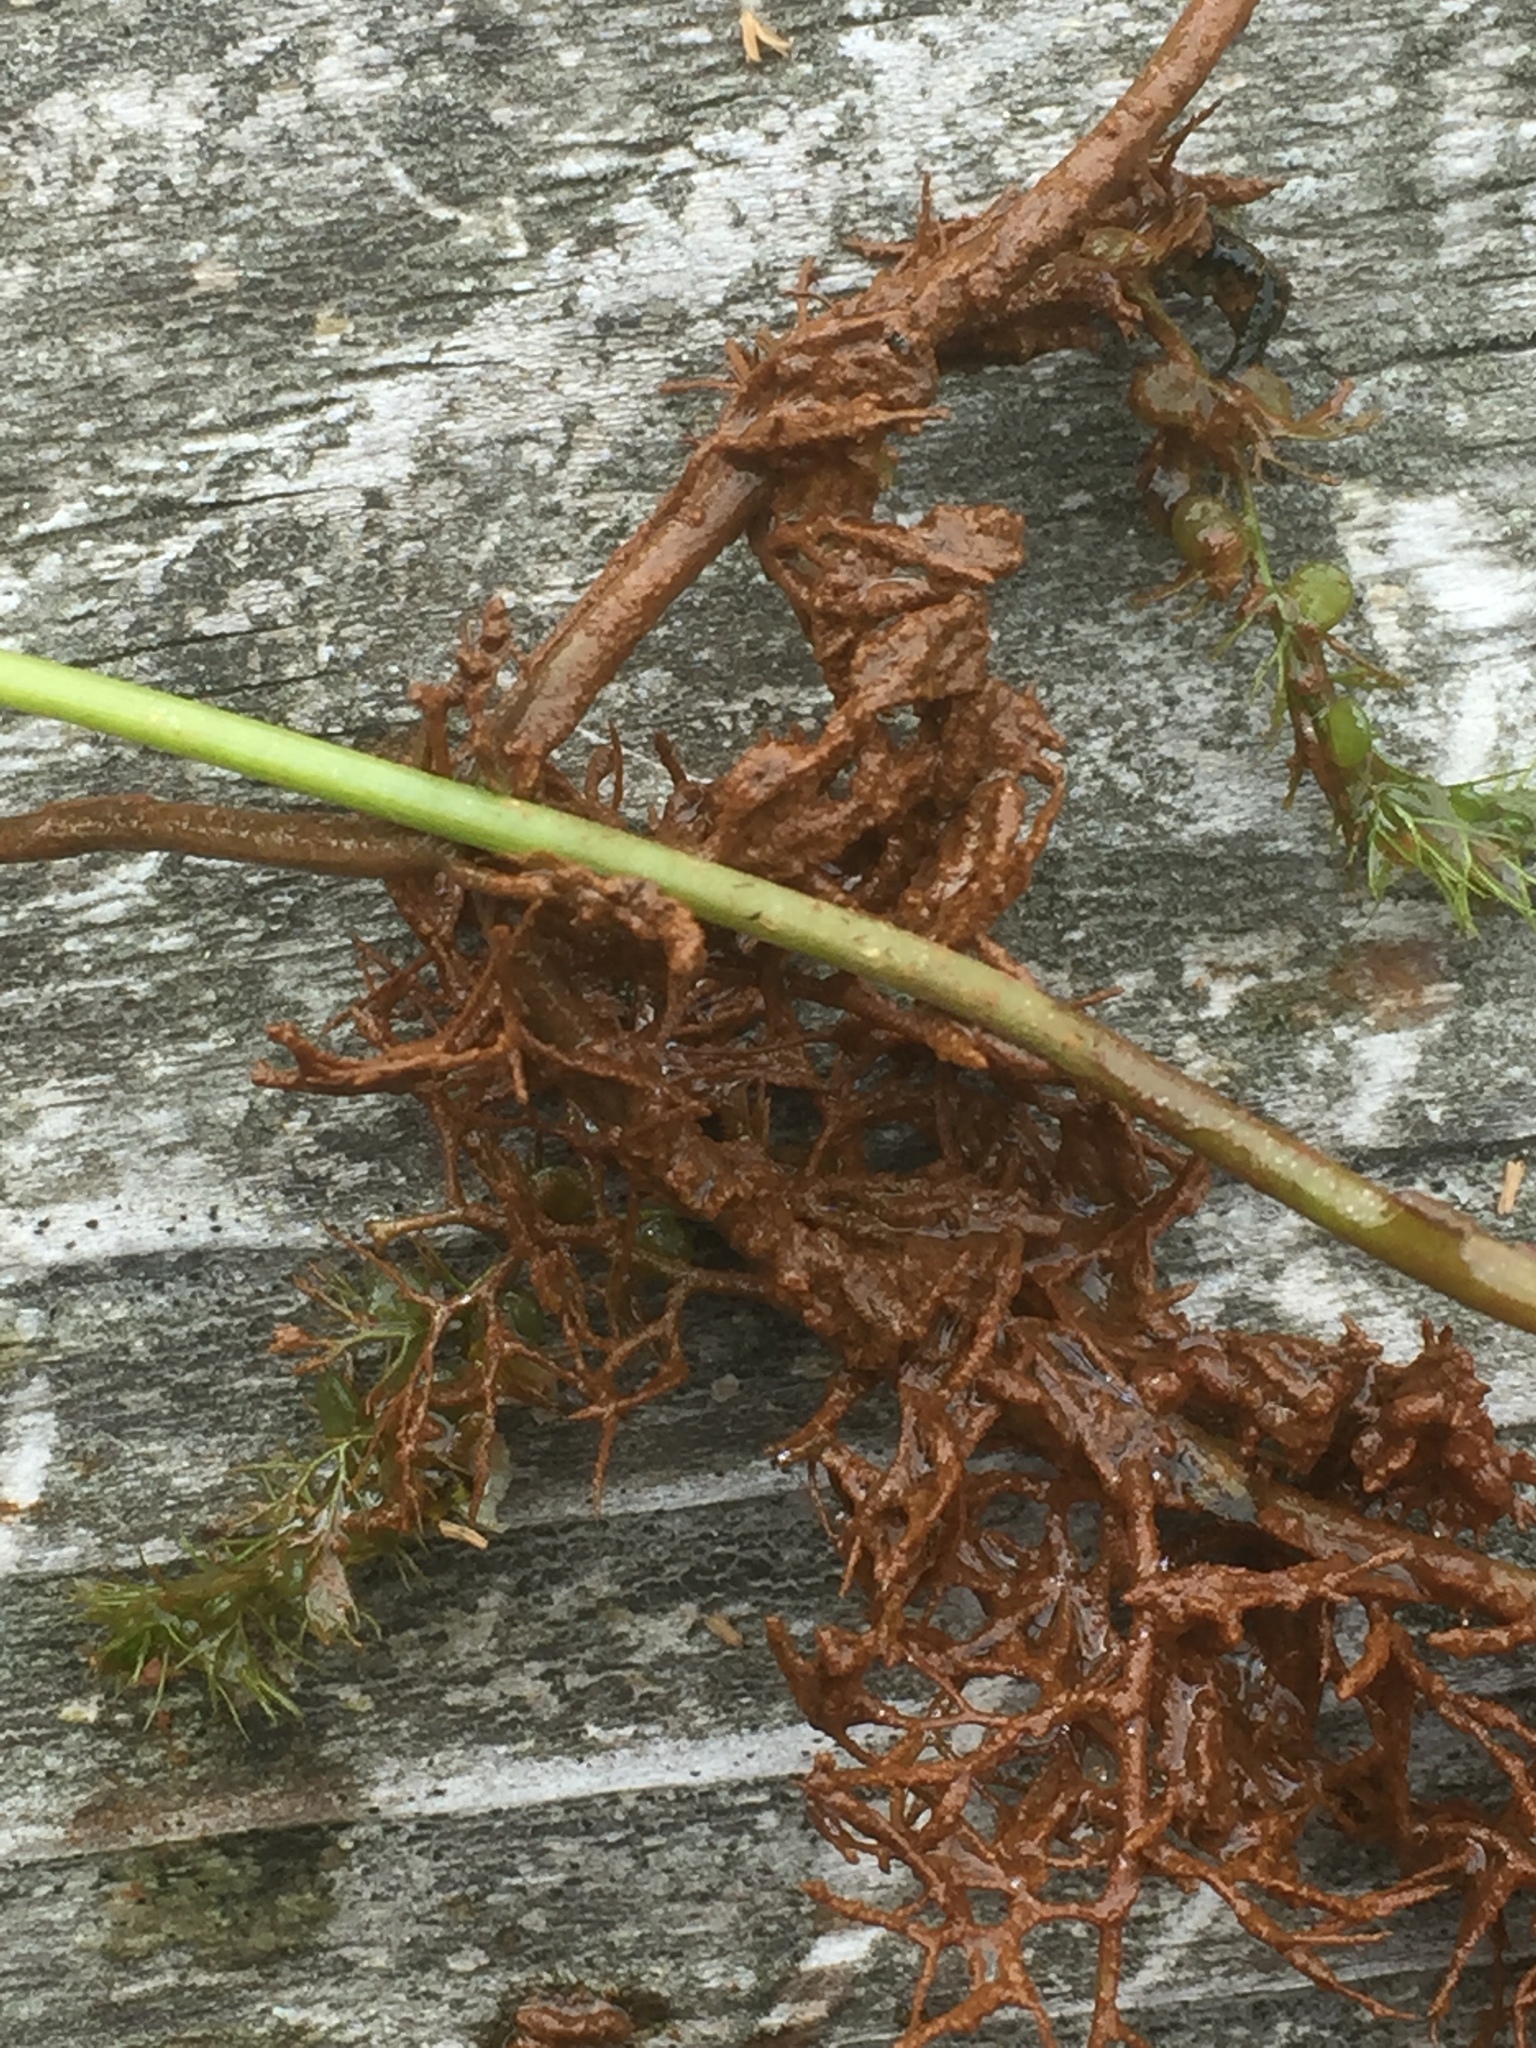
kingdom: Plantae
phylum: Tracheophyta
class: Magnoliopsida
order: Lamiales
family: Lentibulariaceae
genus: Utricularia
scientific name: Utricularia vulgaris
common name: Greater bladderwort
